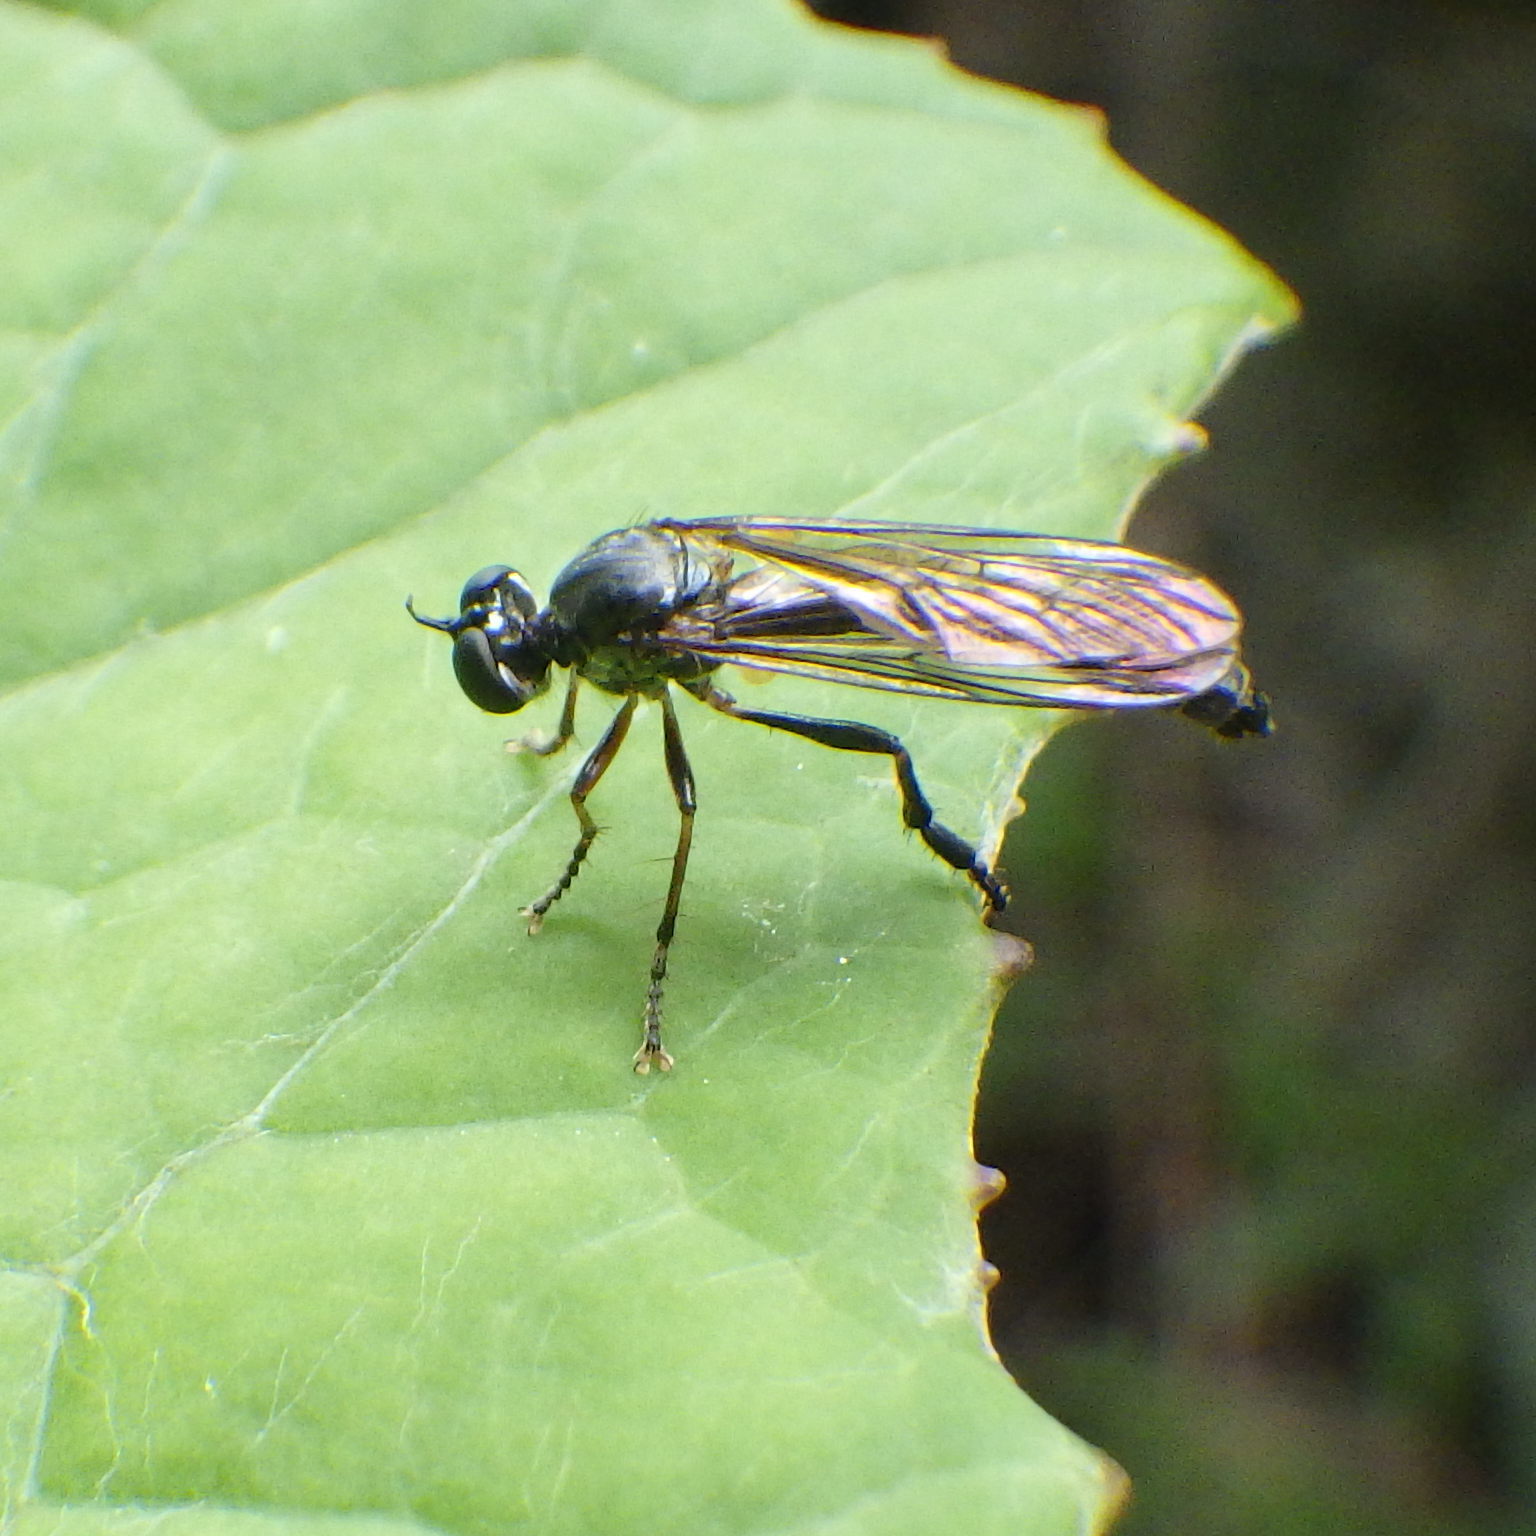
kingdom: Animalia
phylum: Arthropoda
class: Insecta
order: Diptera
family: Asilidae
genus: Dioctria
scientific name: Dioctria hyalipennis
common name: Stripe-legged robberfly
